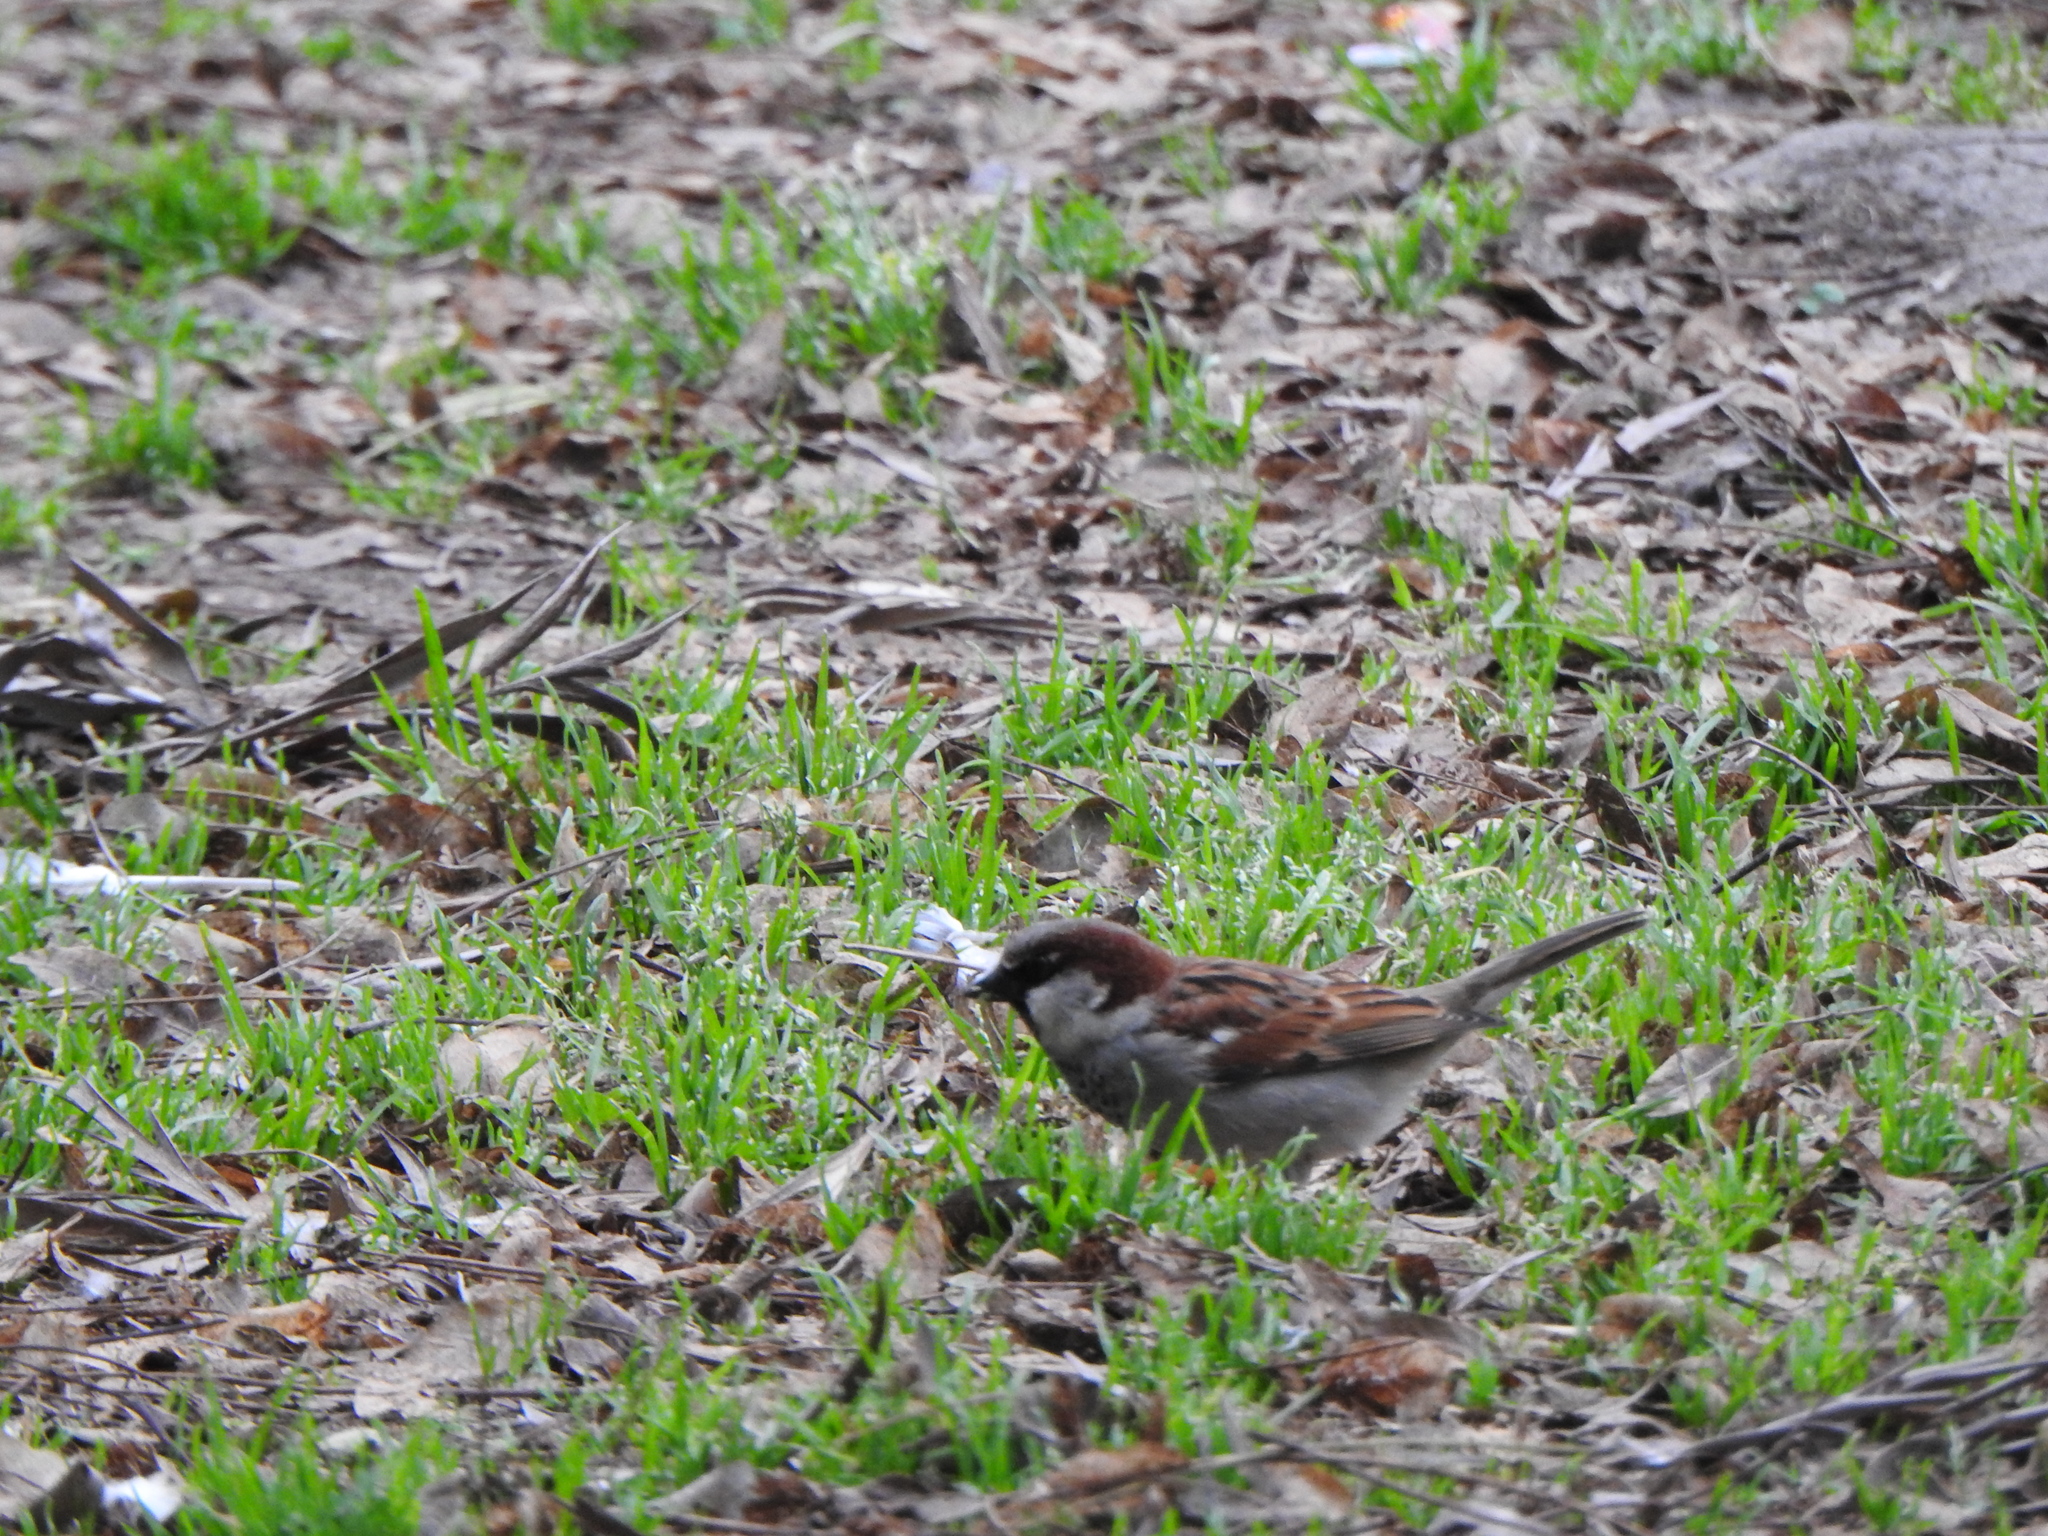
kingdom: Animalia
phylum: Chordata
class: Aves
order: Passeriformes
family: Passeridae
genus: Passer
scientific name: Passer domesticus
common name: House sparrow
